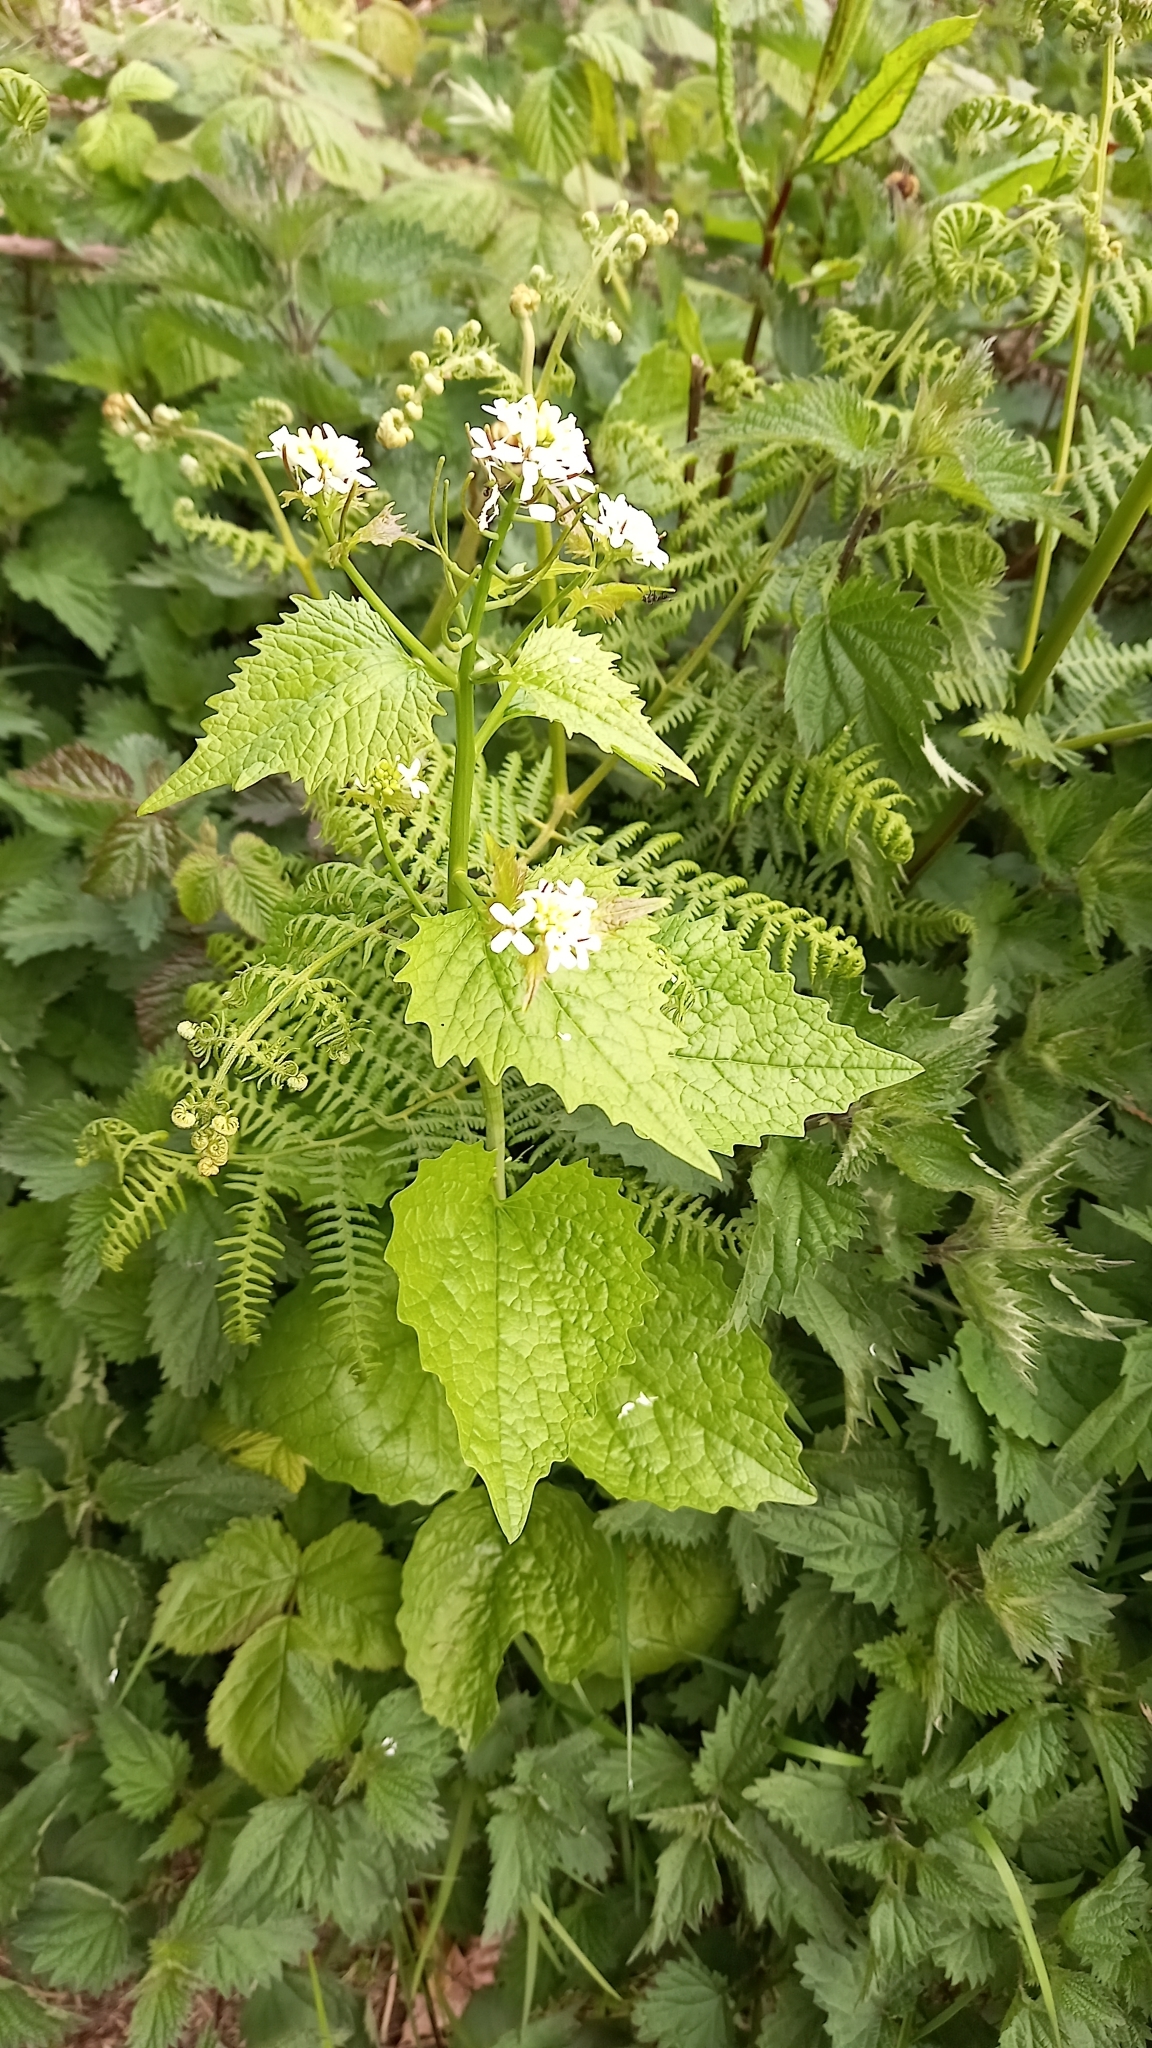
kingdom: Plantae
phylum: Tracheophyta
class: Magnoliopsida
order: Brassicales
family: Brassicaceae
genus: Alliaria
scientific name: Alliaria petiolata
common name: Garlic mustard
